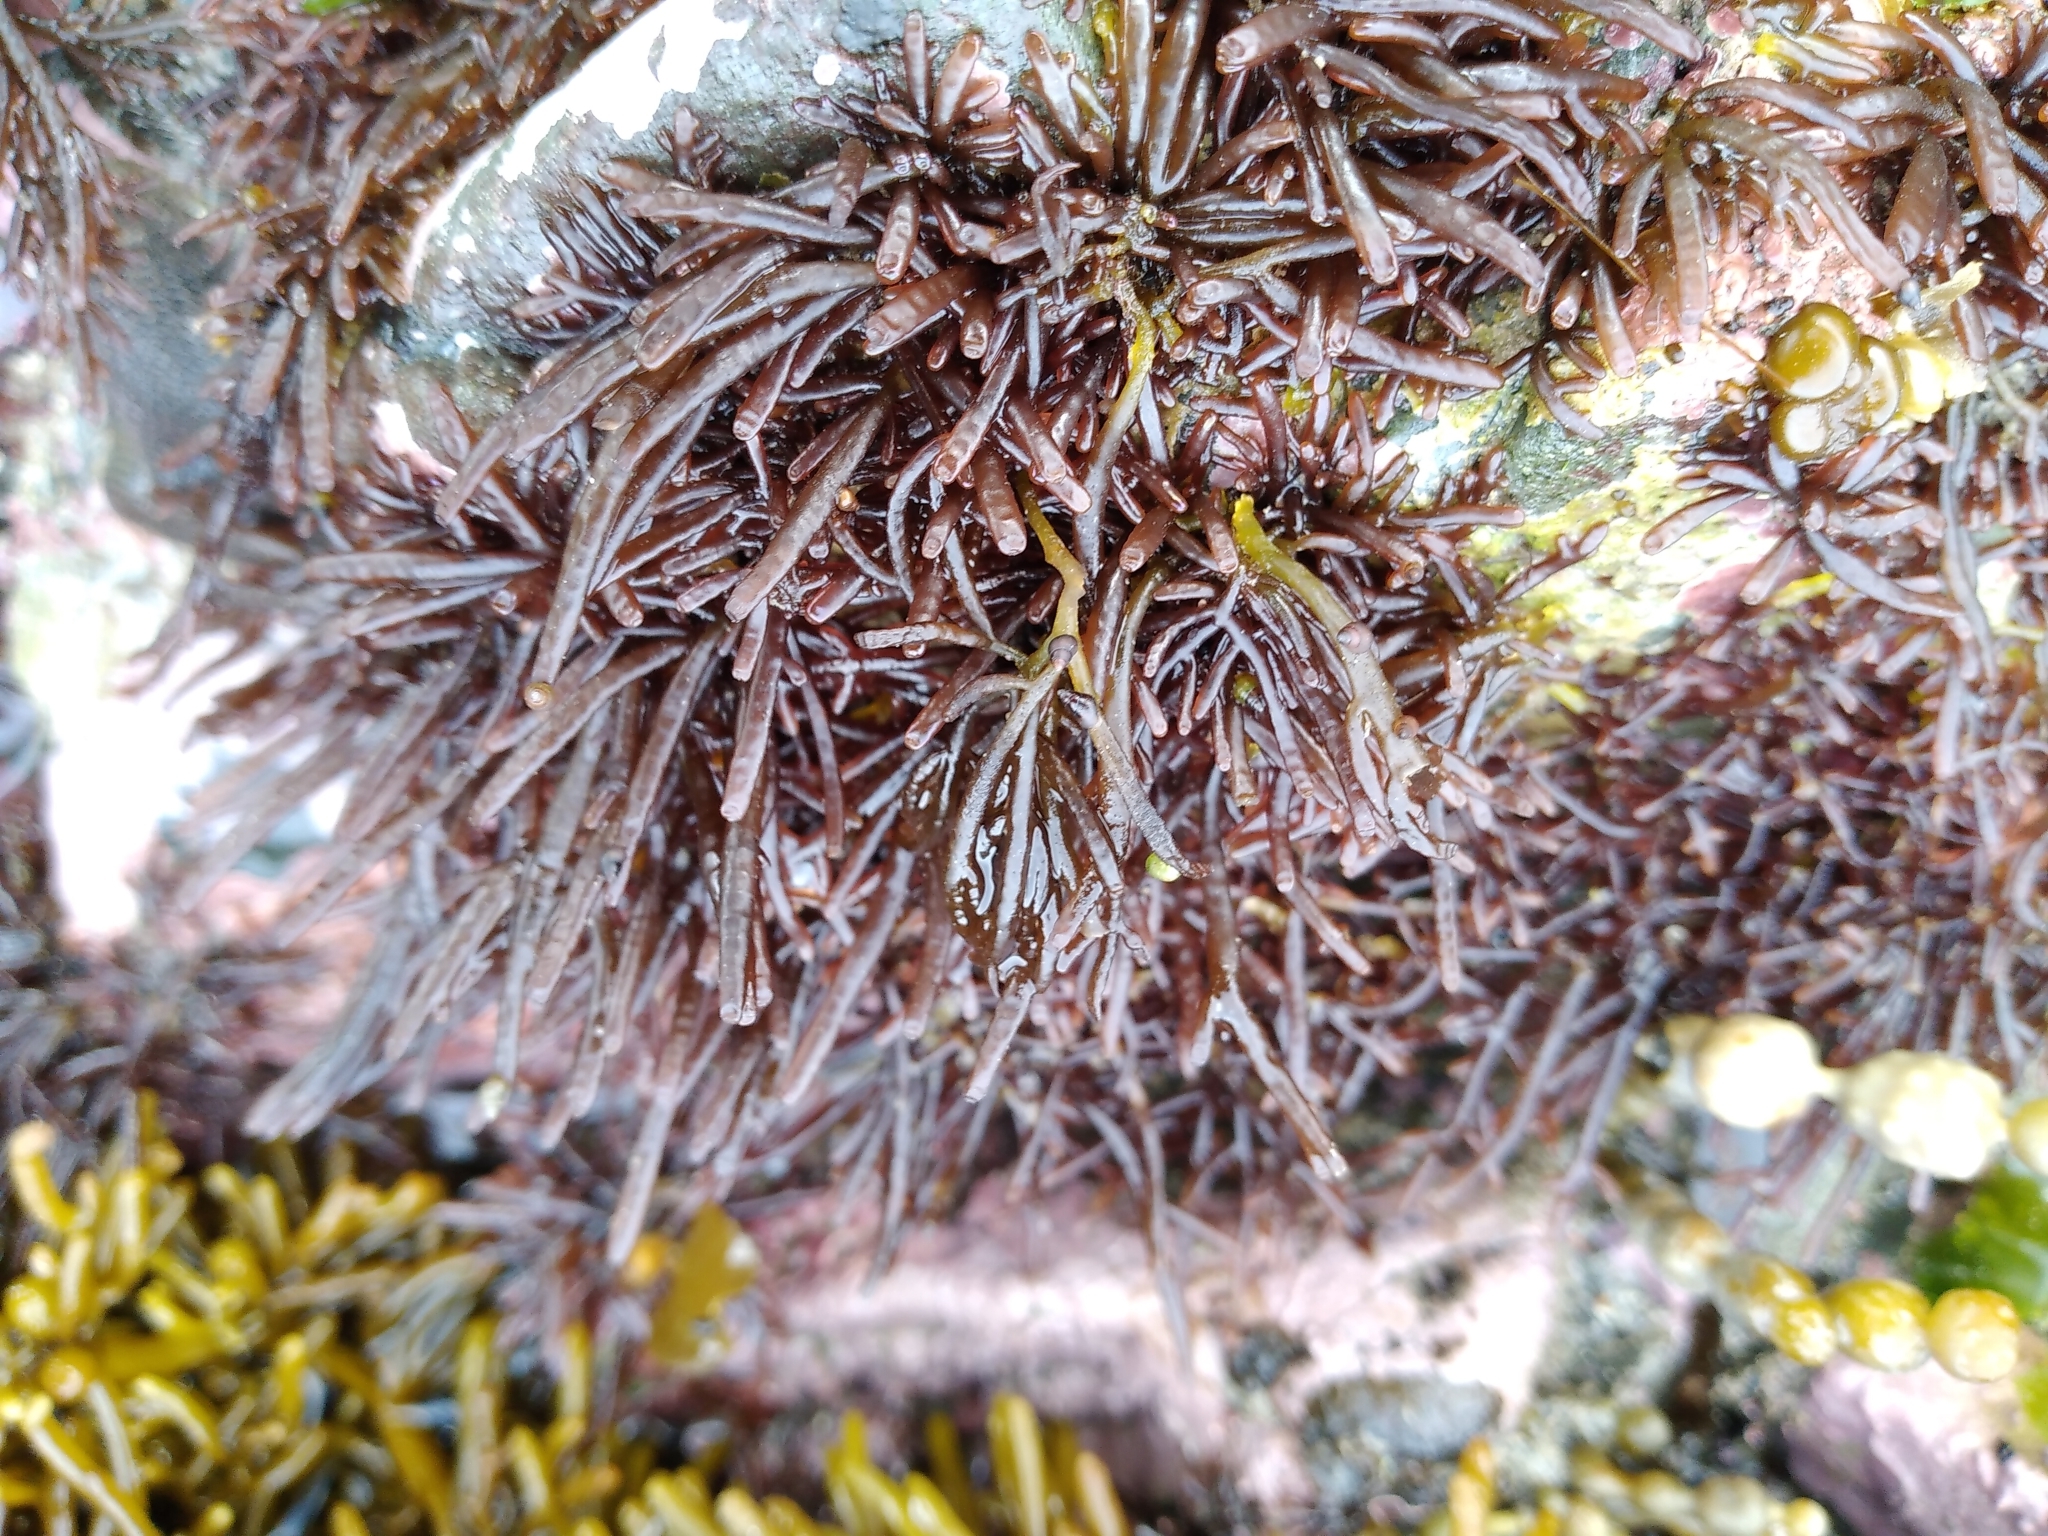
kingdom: Plantae
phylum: Rhodophyta
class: Florideophyceae
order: Rhodymeniales
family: Champiaceae
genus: Champia
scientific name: Champia novae-zelandiae
